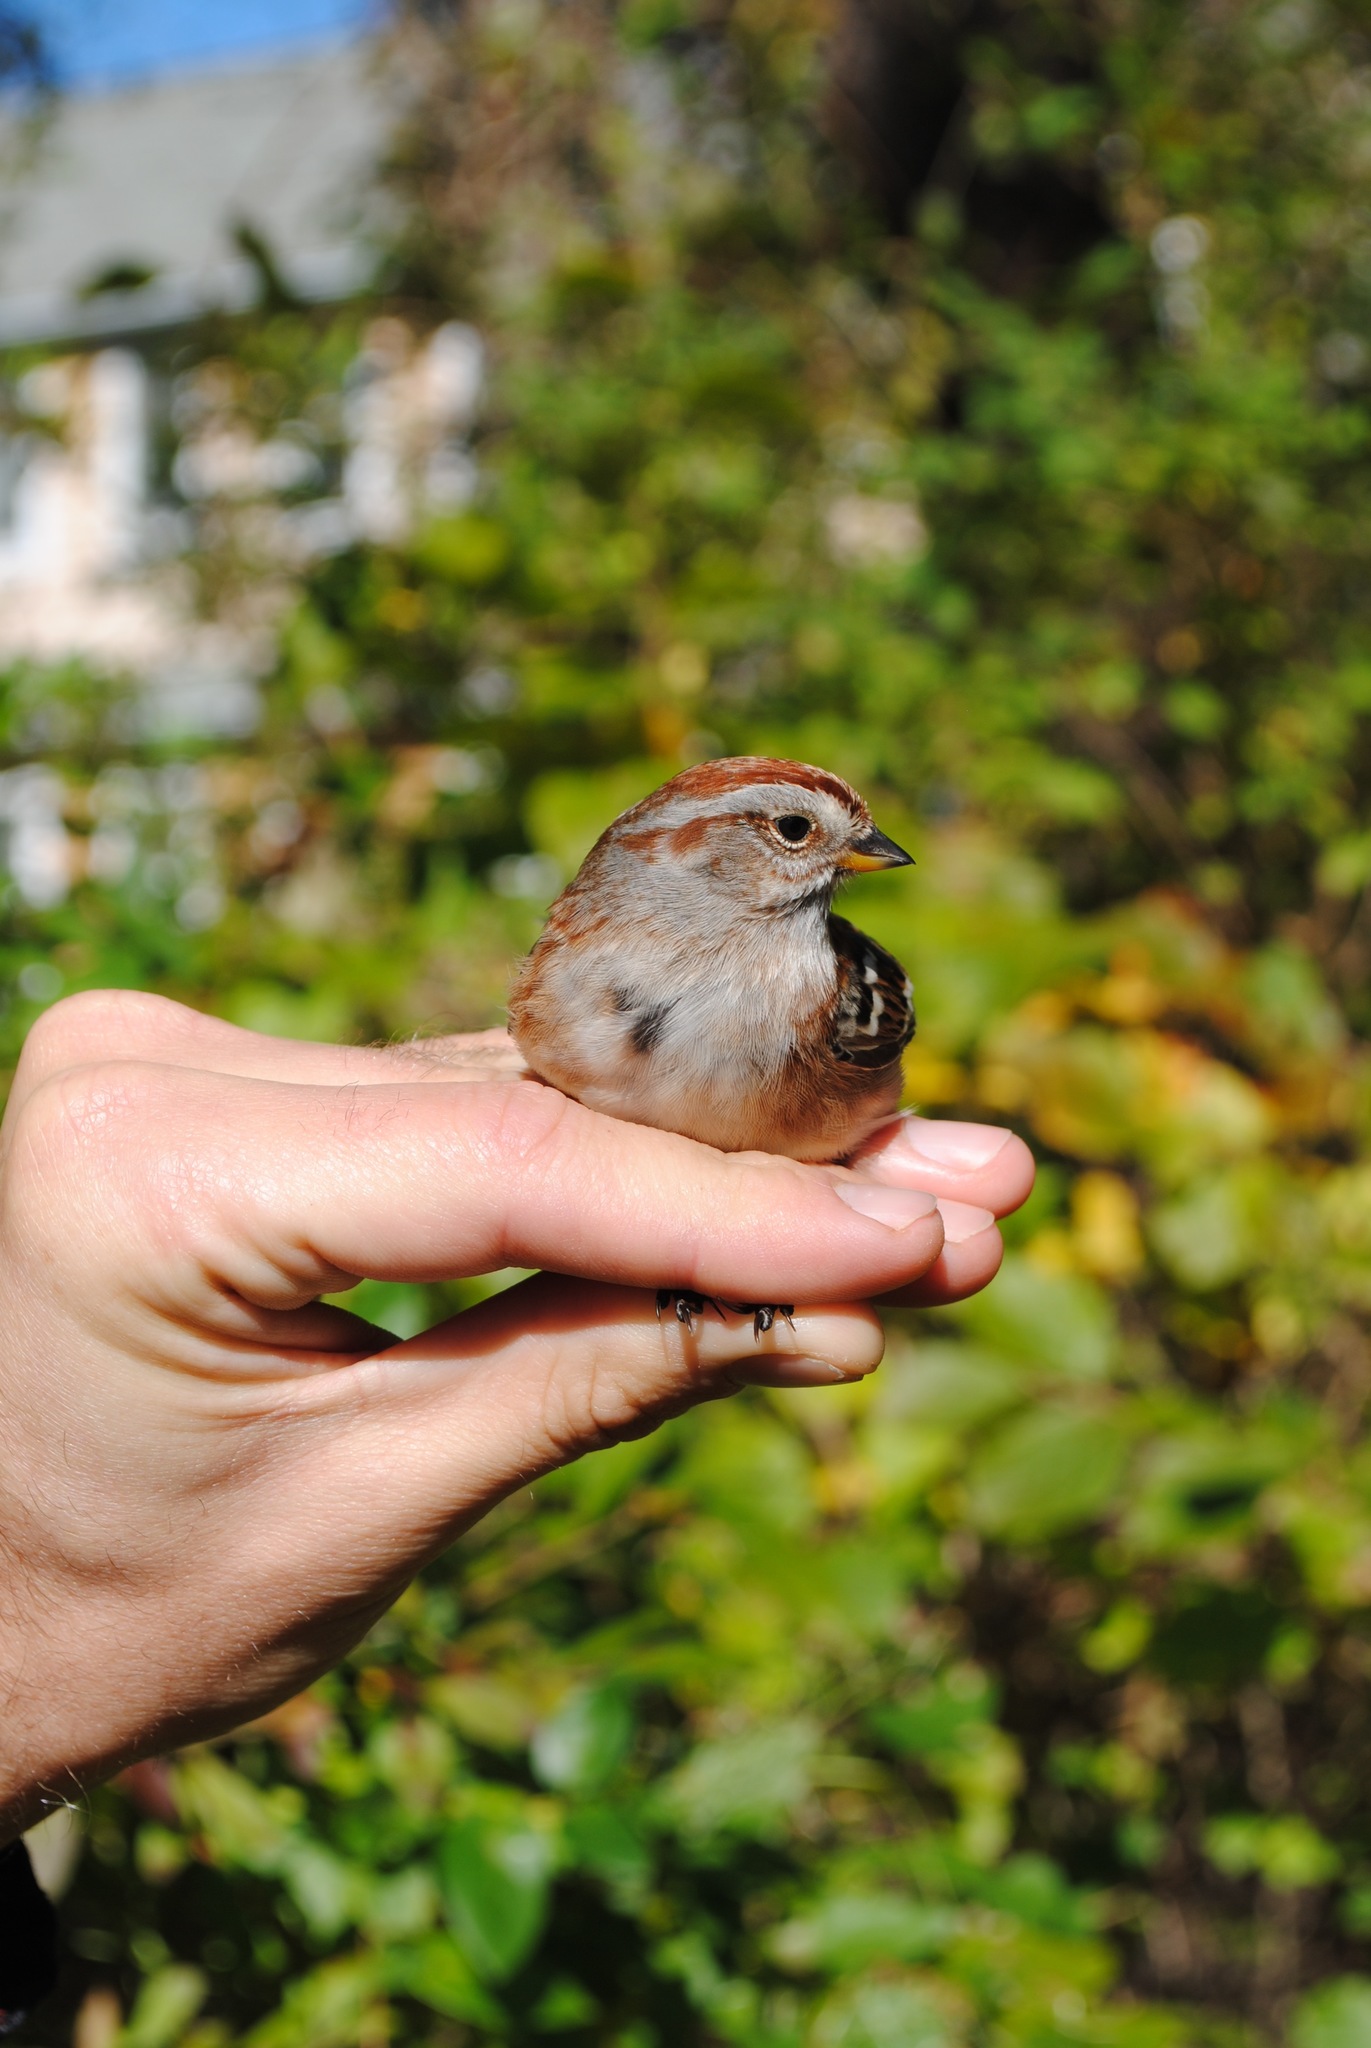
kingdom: Animalia
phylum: Chordata
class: Aves
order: Passeriformes
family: Passerellidae
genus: Spizelloides
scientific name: Spizelloides arborea
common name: American tree sparrow
